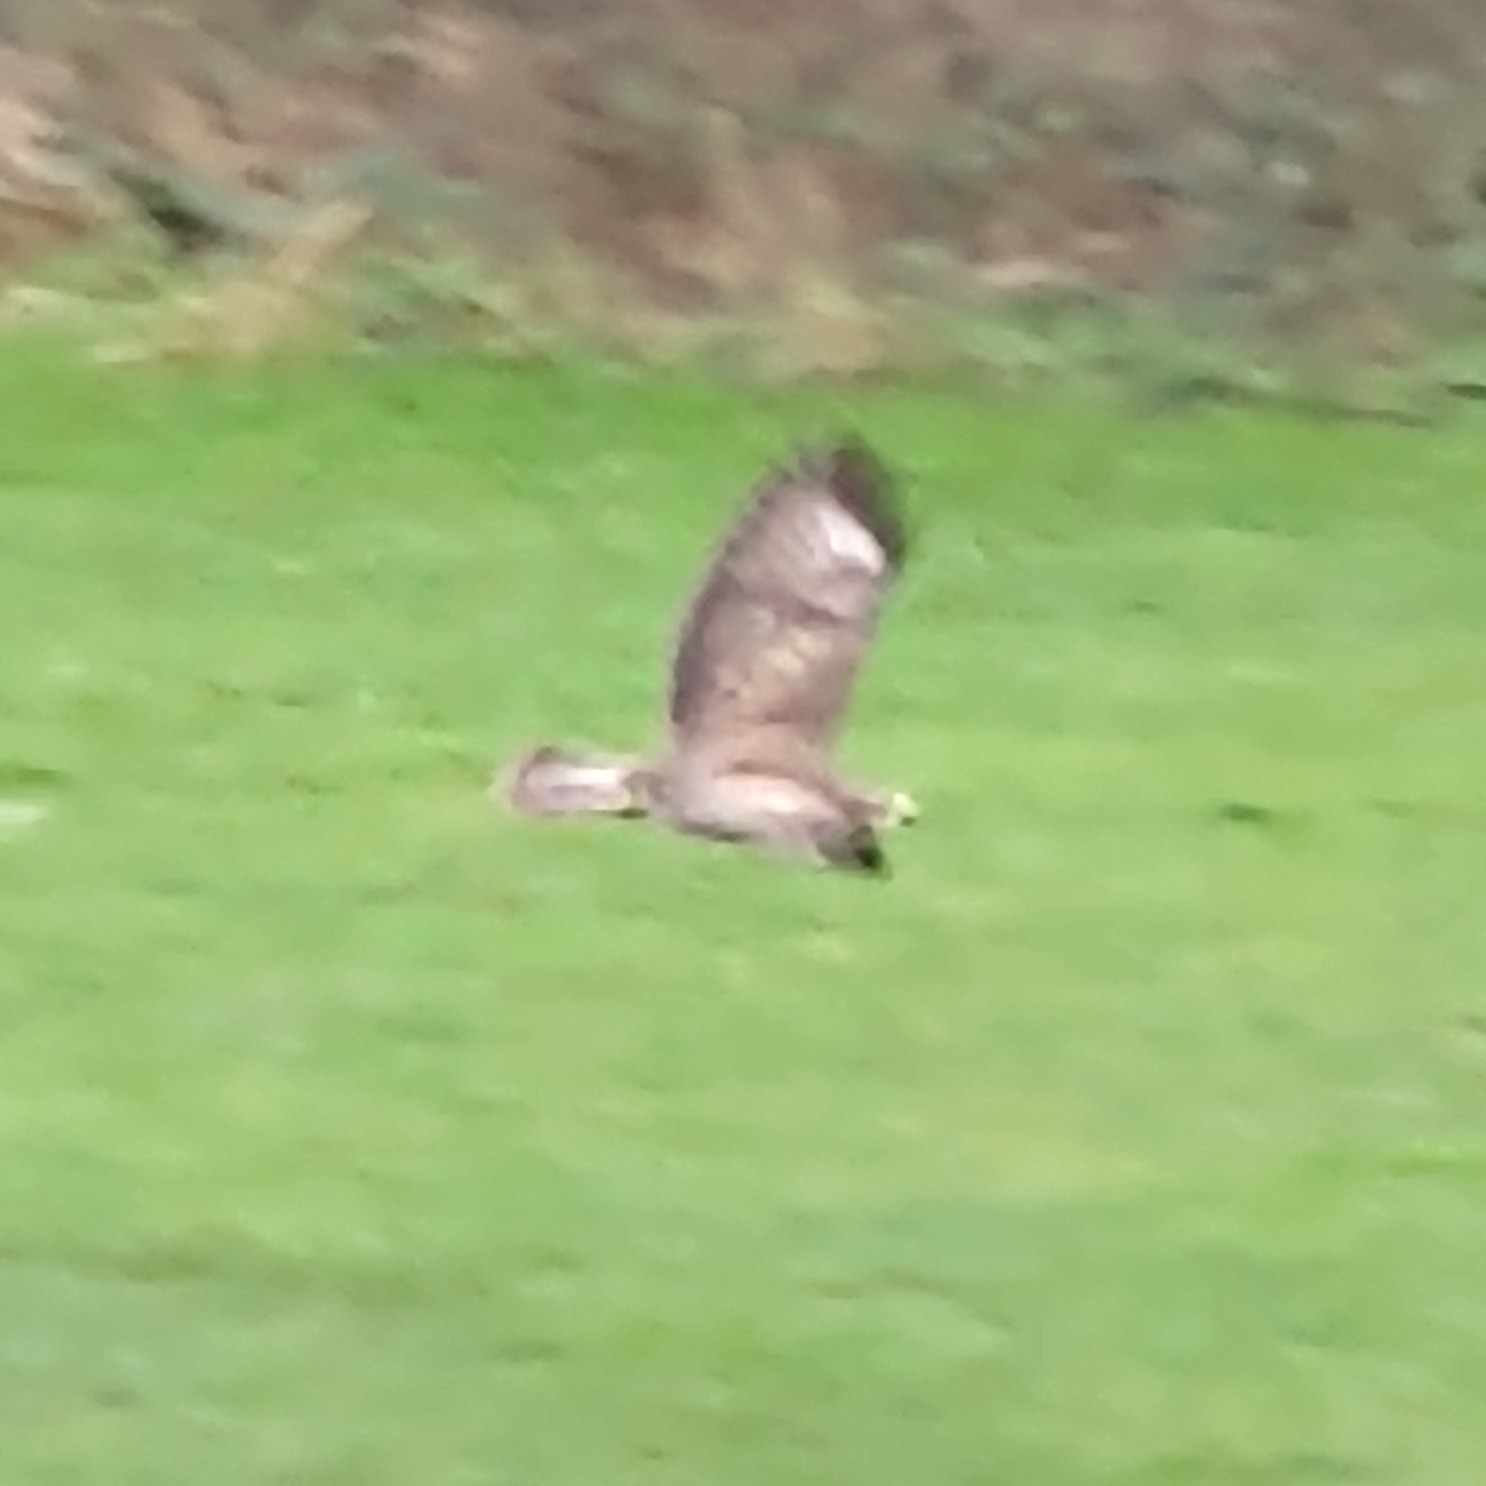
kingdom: Animalia
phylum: Chordata
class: Aves
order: Accipitriformes
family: Accipitridae
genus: Buteo
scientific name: Buteo buteo
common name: Common buzzard
